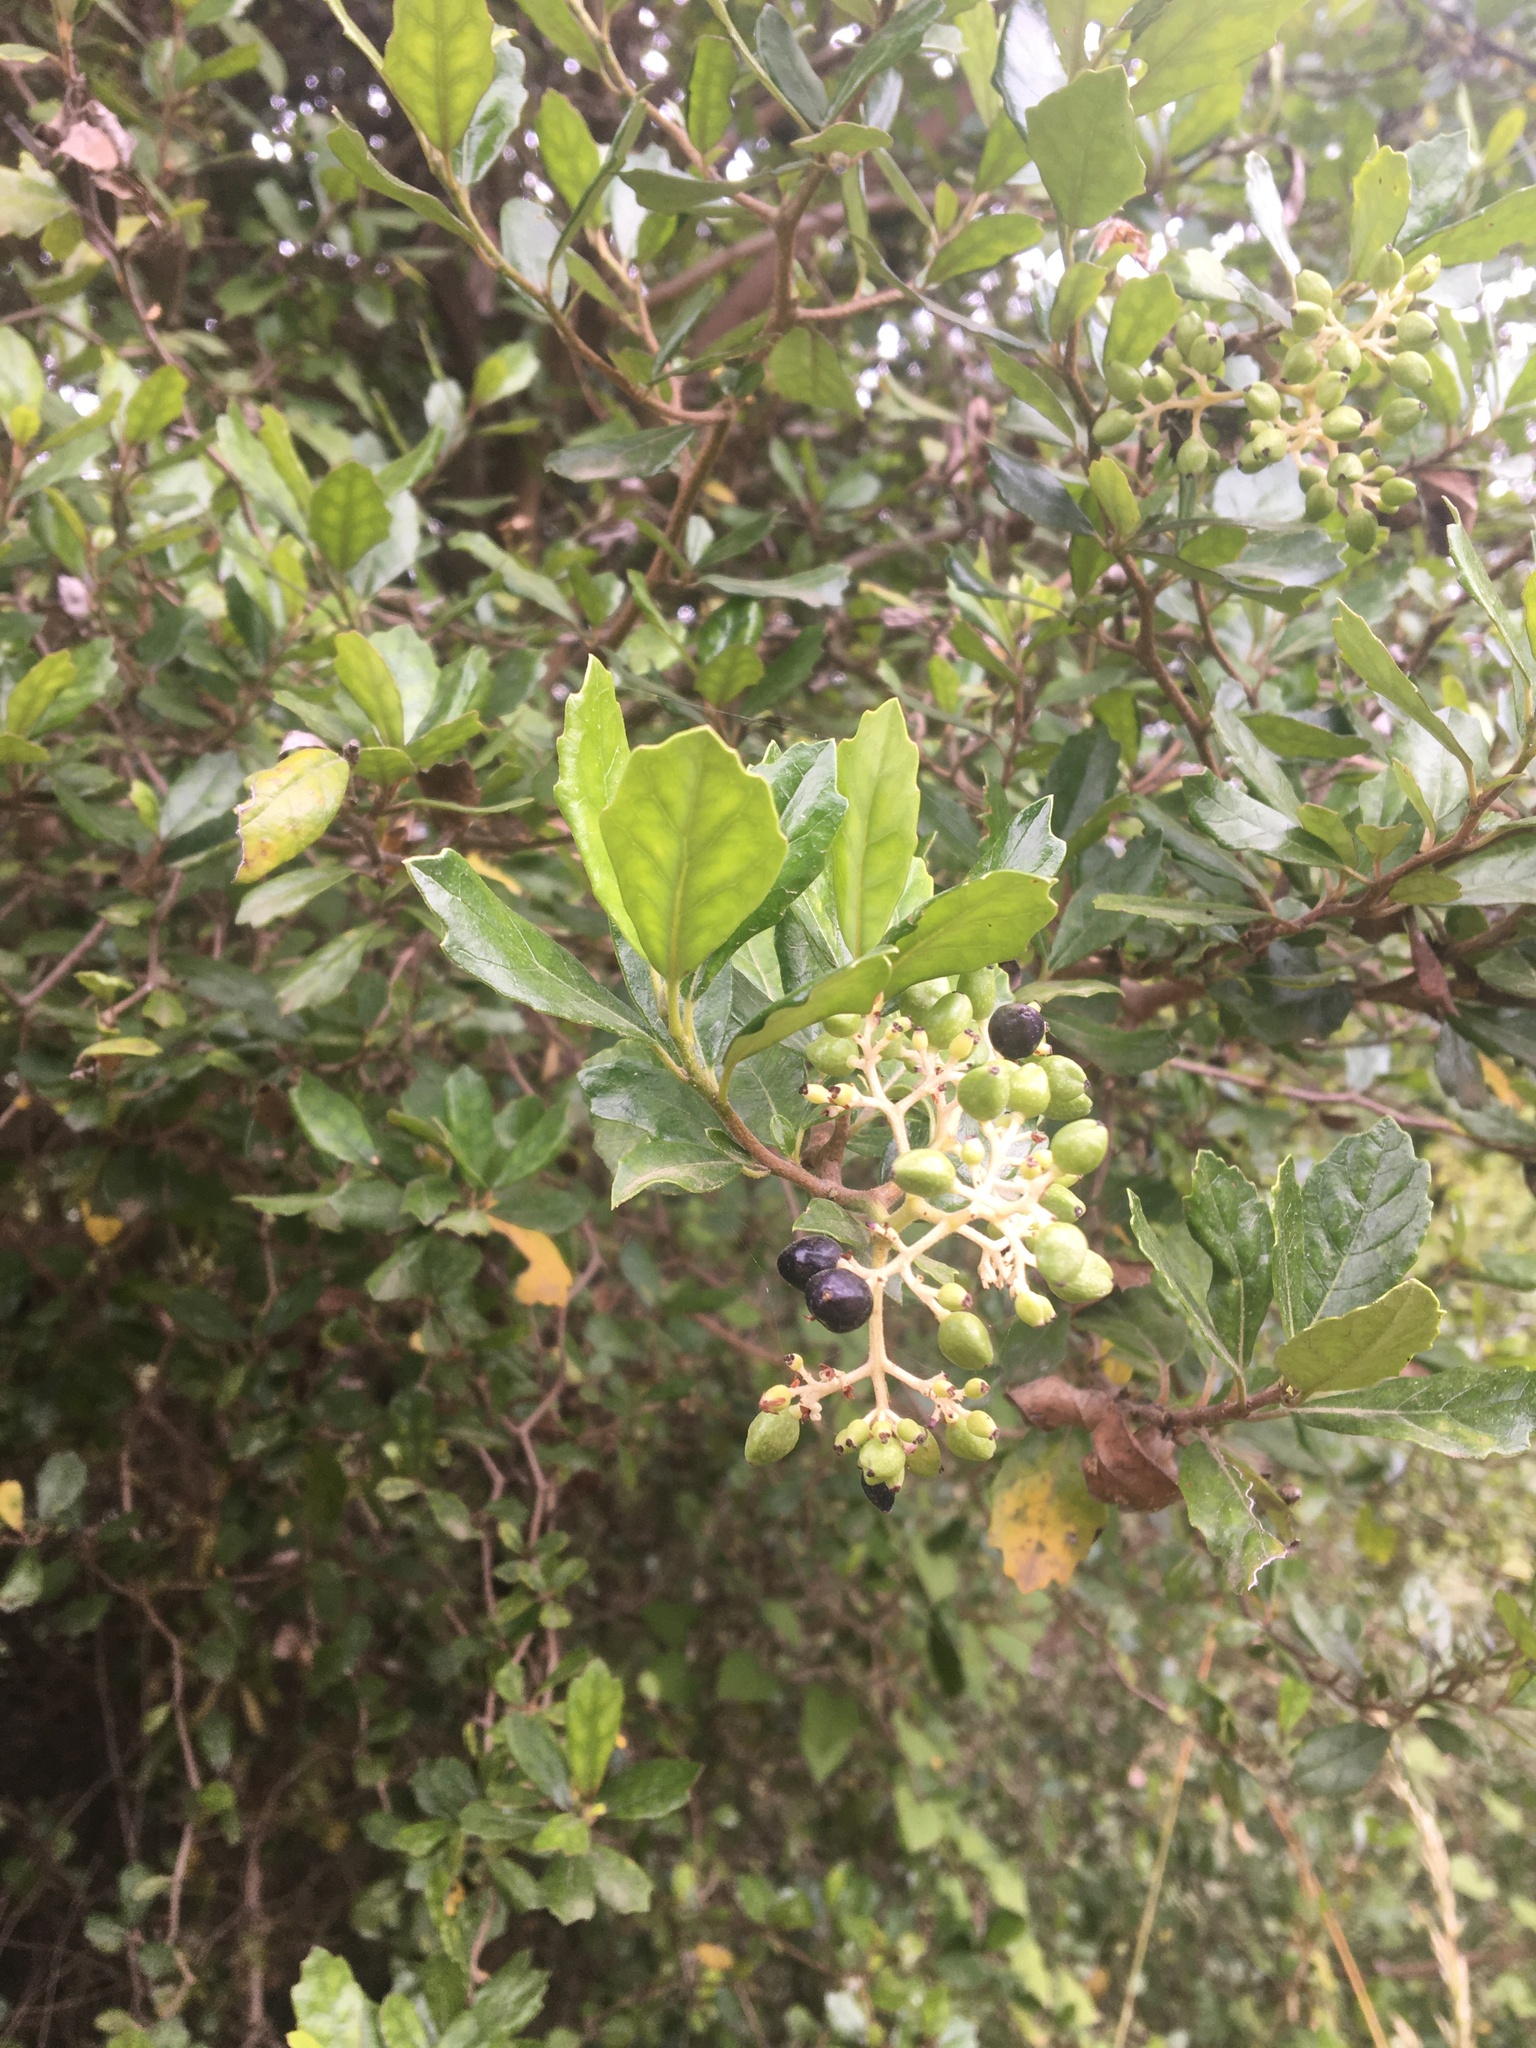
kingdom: Plantae
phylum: Tracheophyta
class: Magnoliopsida
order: Apiales
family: Pennantiaceae
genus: Pennantia
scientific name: Pennantia corymbosa
